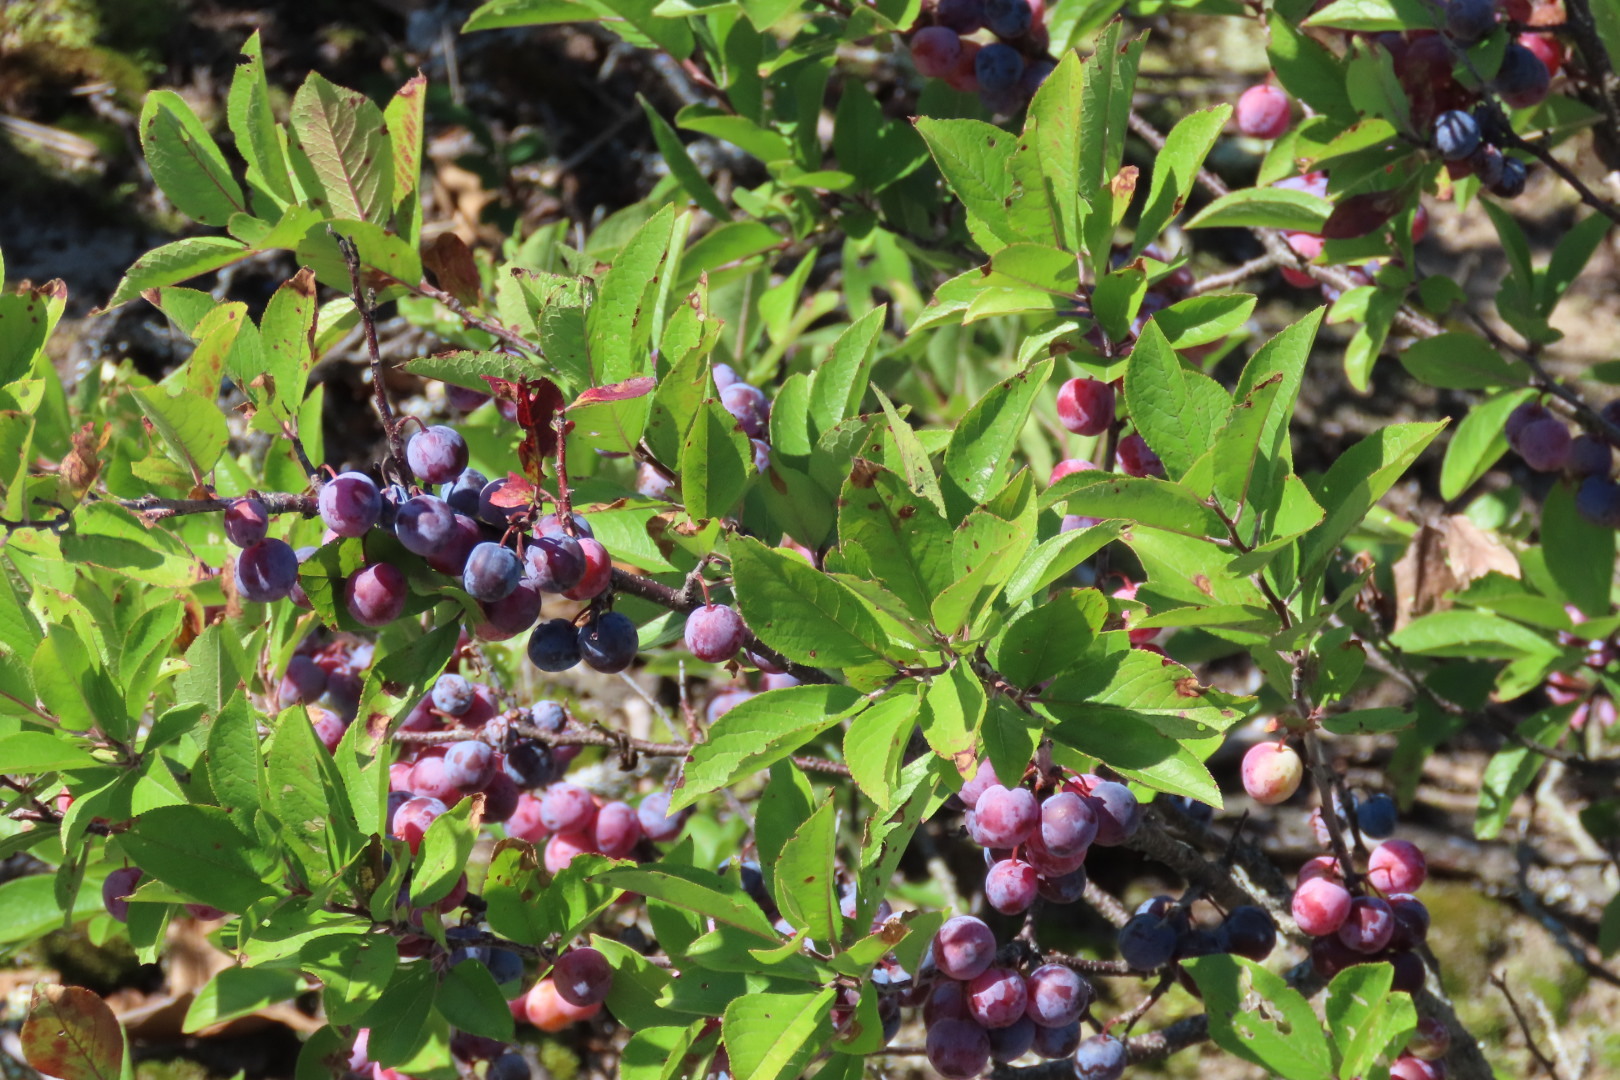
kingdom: Plantae
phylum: Tracheophyta
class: Magnoliopsida
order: Rosales
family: Rosaceae
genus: Prunus
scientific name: Prunus maritima
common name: Beach plum
